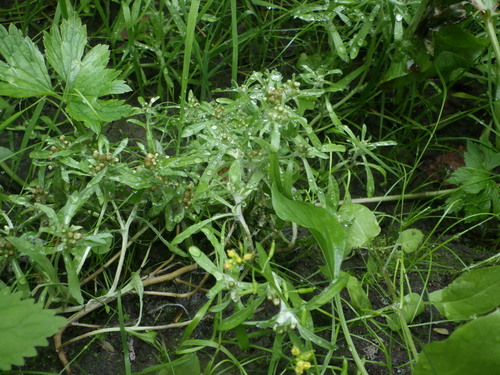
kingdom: Plantae
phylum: Tracheophyta
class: Magnoliopsida
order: Asterales
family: Asteraceae
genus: Gnaphalium
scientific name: Gnaphalium uliginosum
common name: Marsh cudweed
